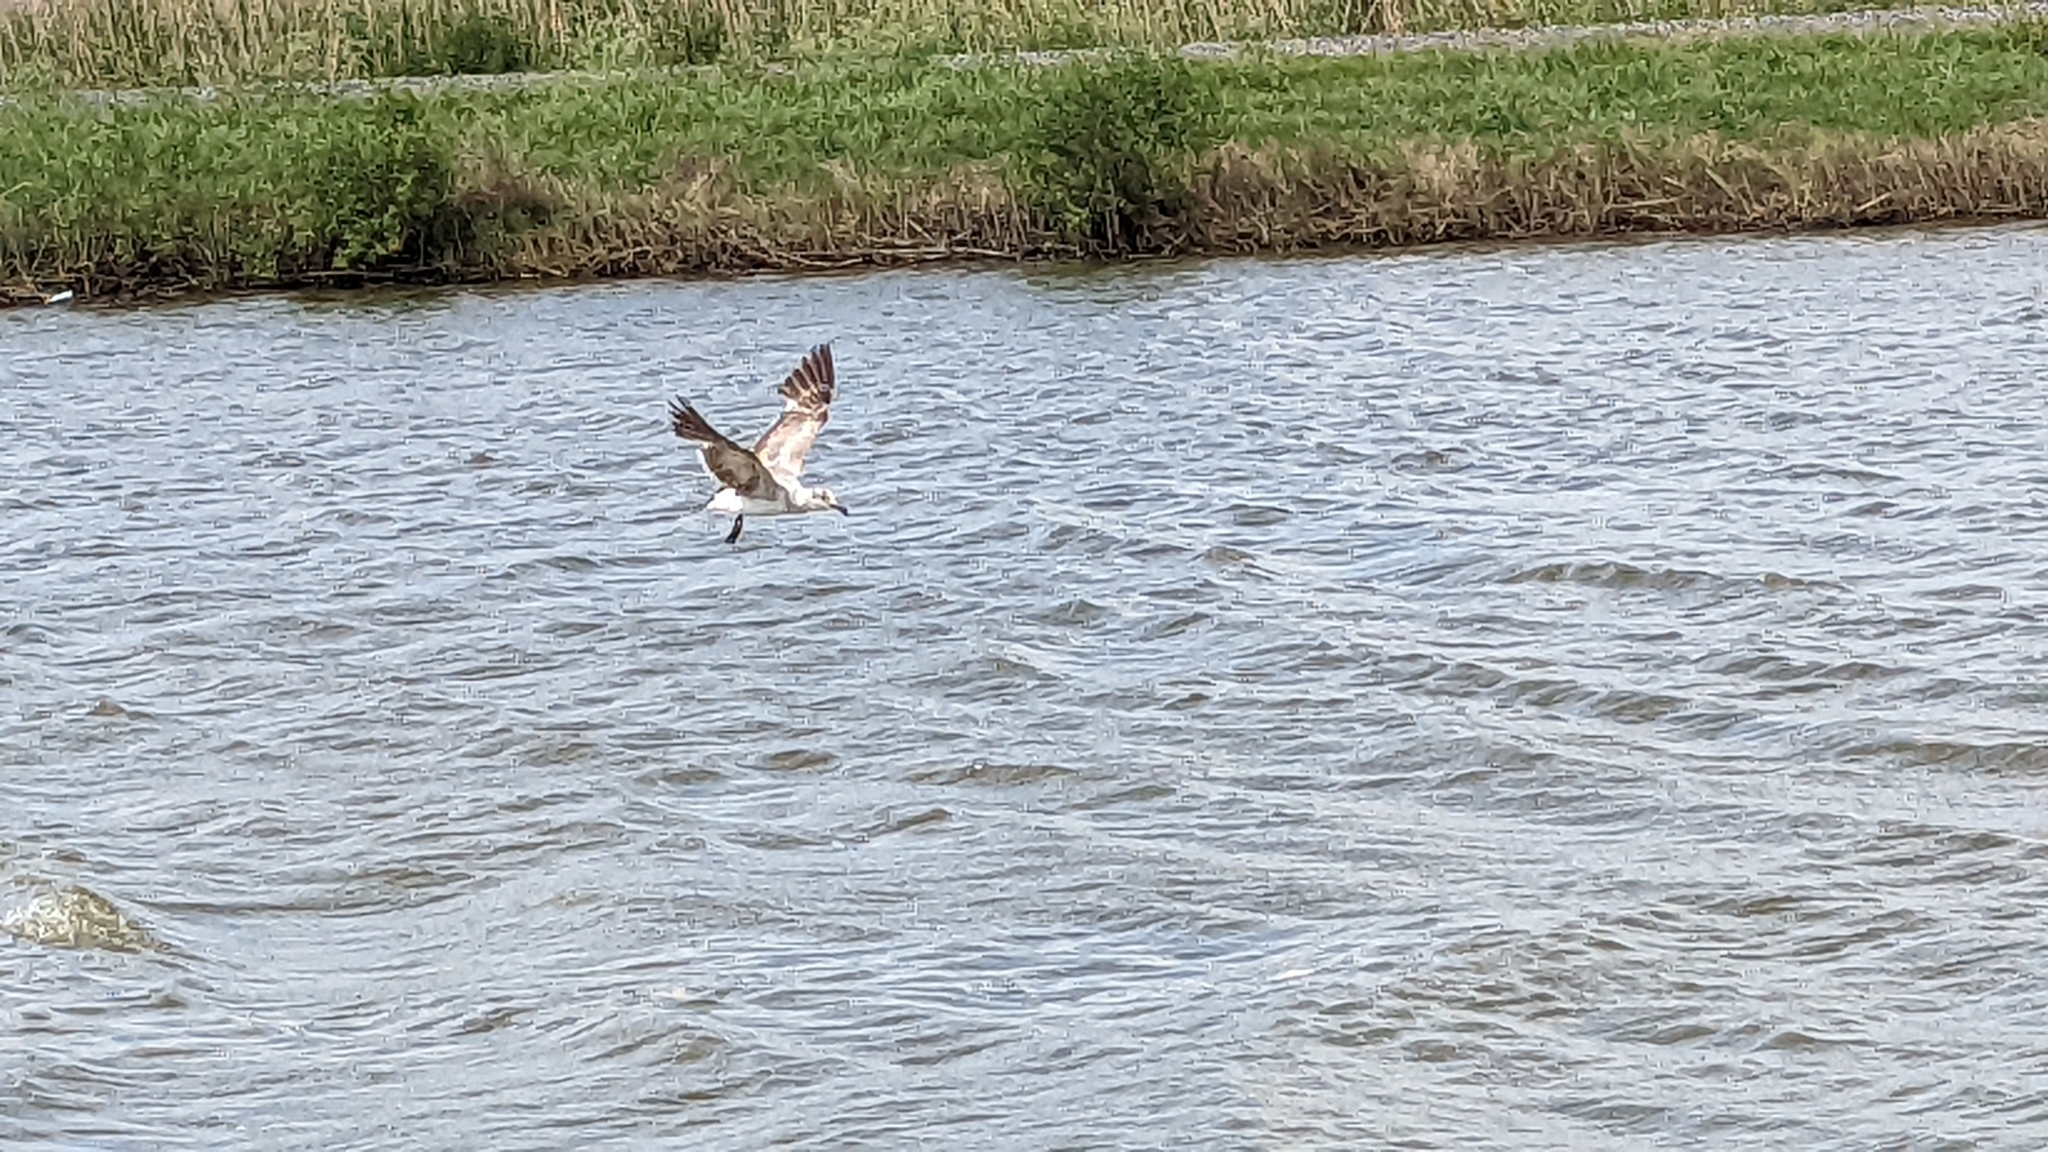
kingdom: Animalia
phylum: Chordata
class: Aves
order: Charadriiformes
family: Laridae
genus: Leucophaeus
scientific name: Leucophaeus atricilla
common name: Laughing gull
